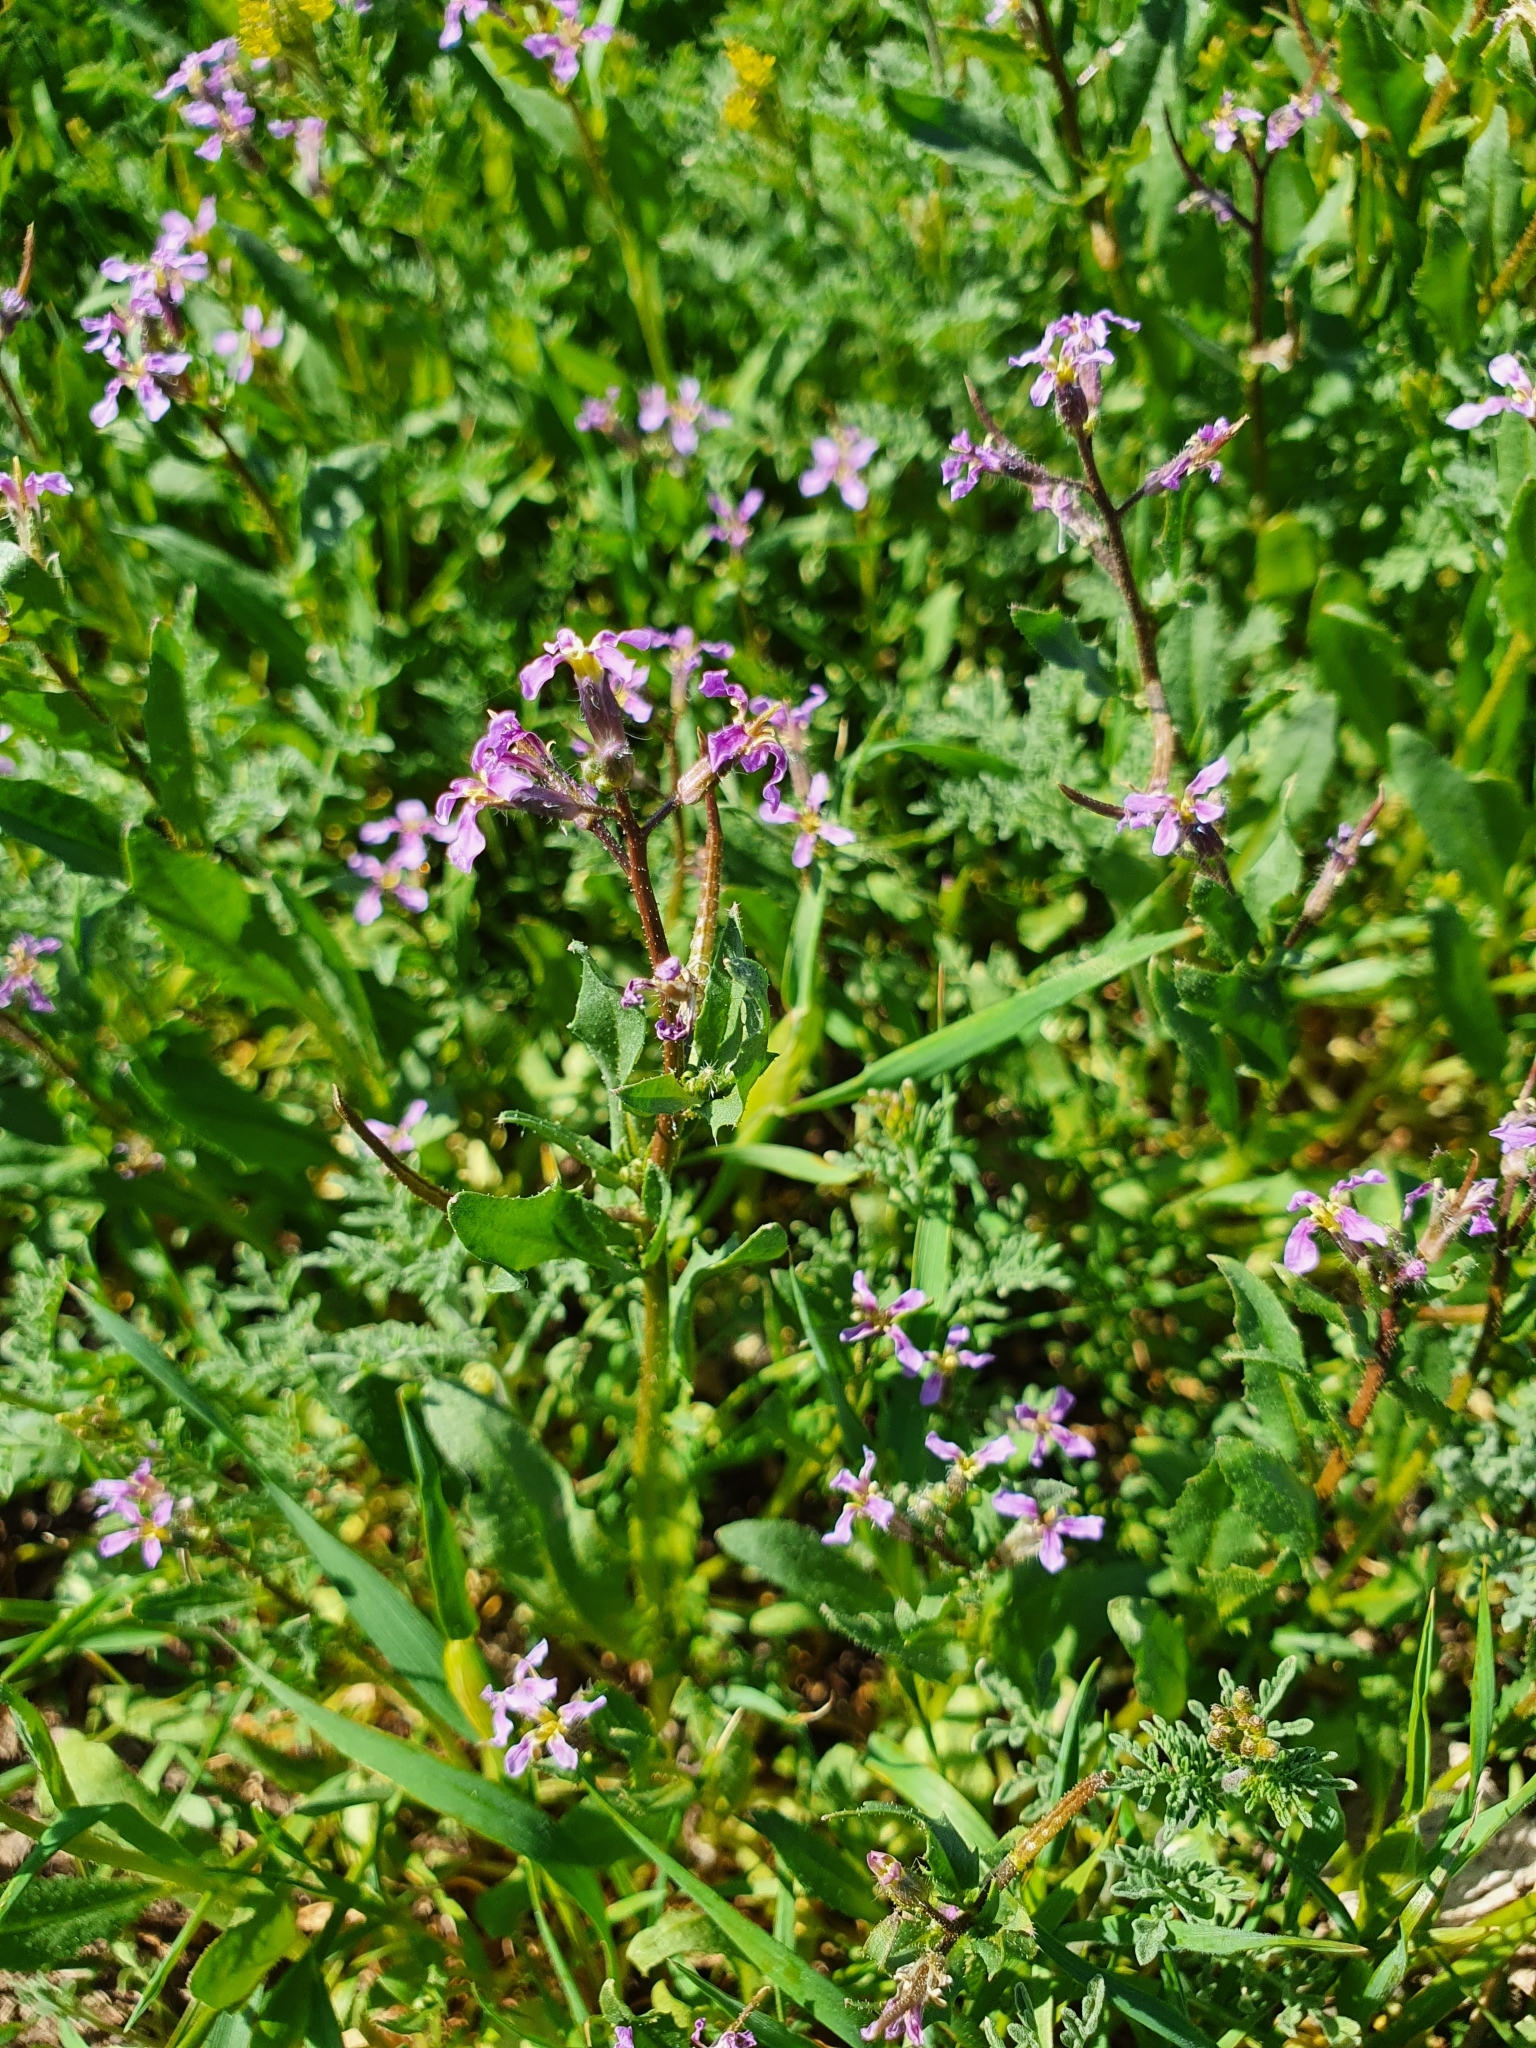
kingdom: Plantae
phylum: Tracheophyta
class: Magnoliopsida
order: Brassicales
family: Brassicaceae
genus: Chorispora
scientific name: Chorispora tenella
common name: Crossflower
